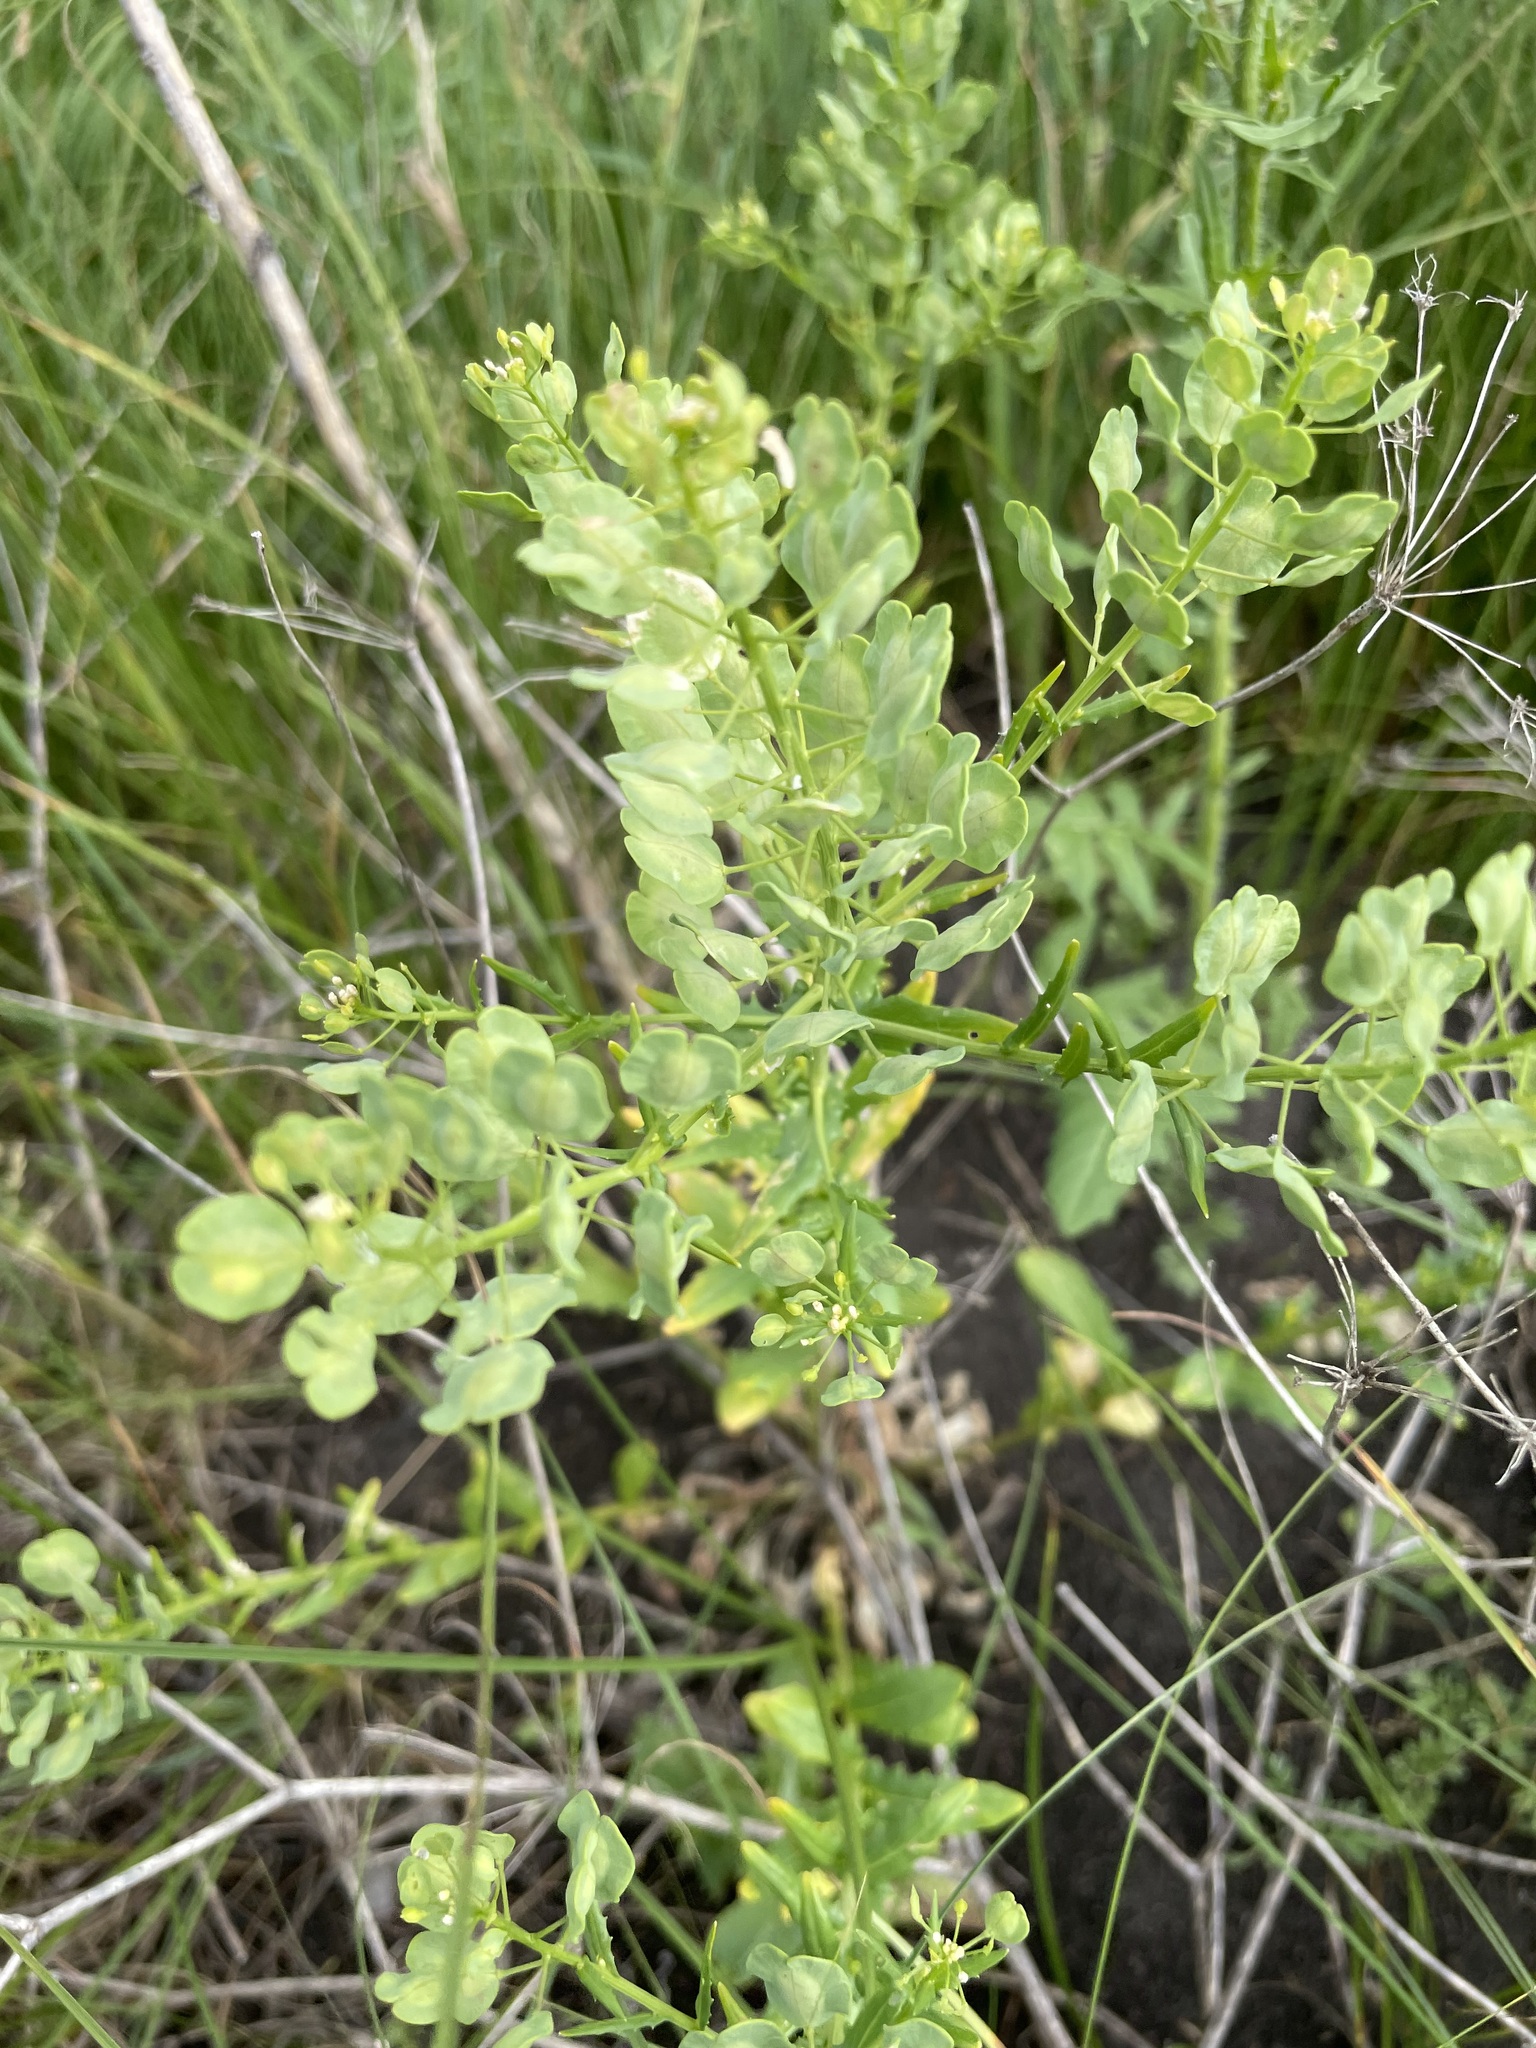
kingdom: Plantae
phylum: Tracheophyta
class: Magnoliopsida
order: Brassicales
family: Brassicaceae
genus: Thlaspi
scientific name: Thlaspi arvense
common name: Field pennycress
